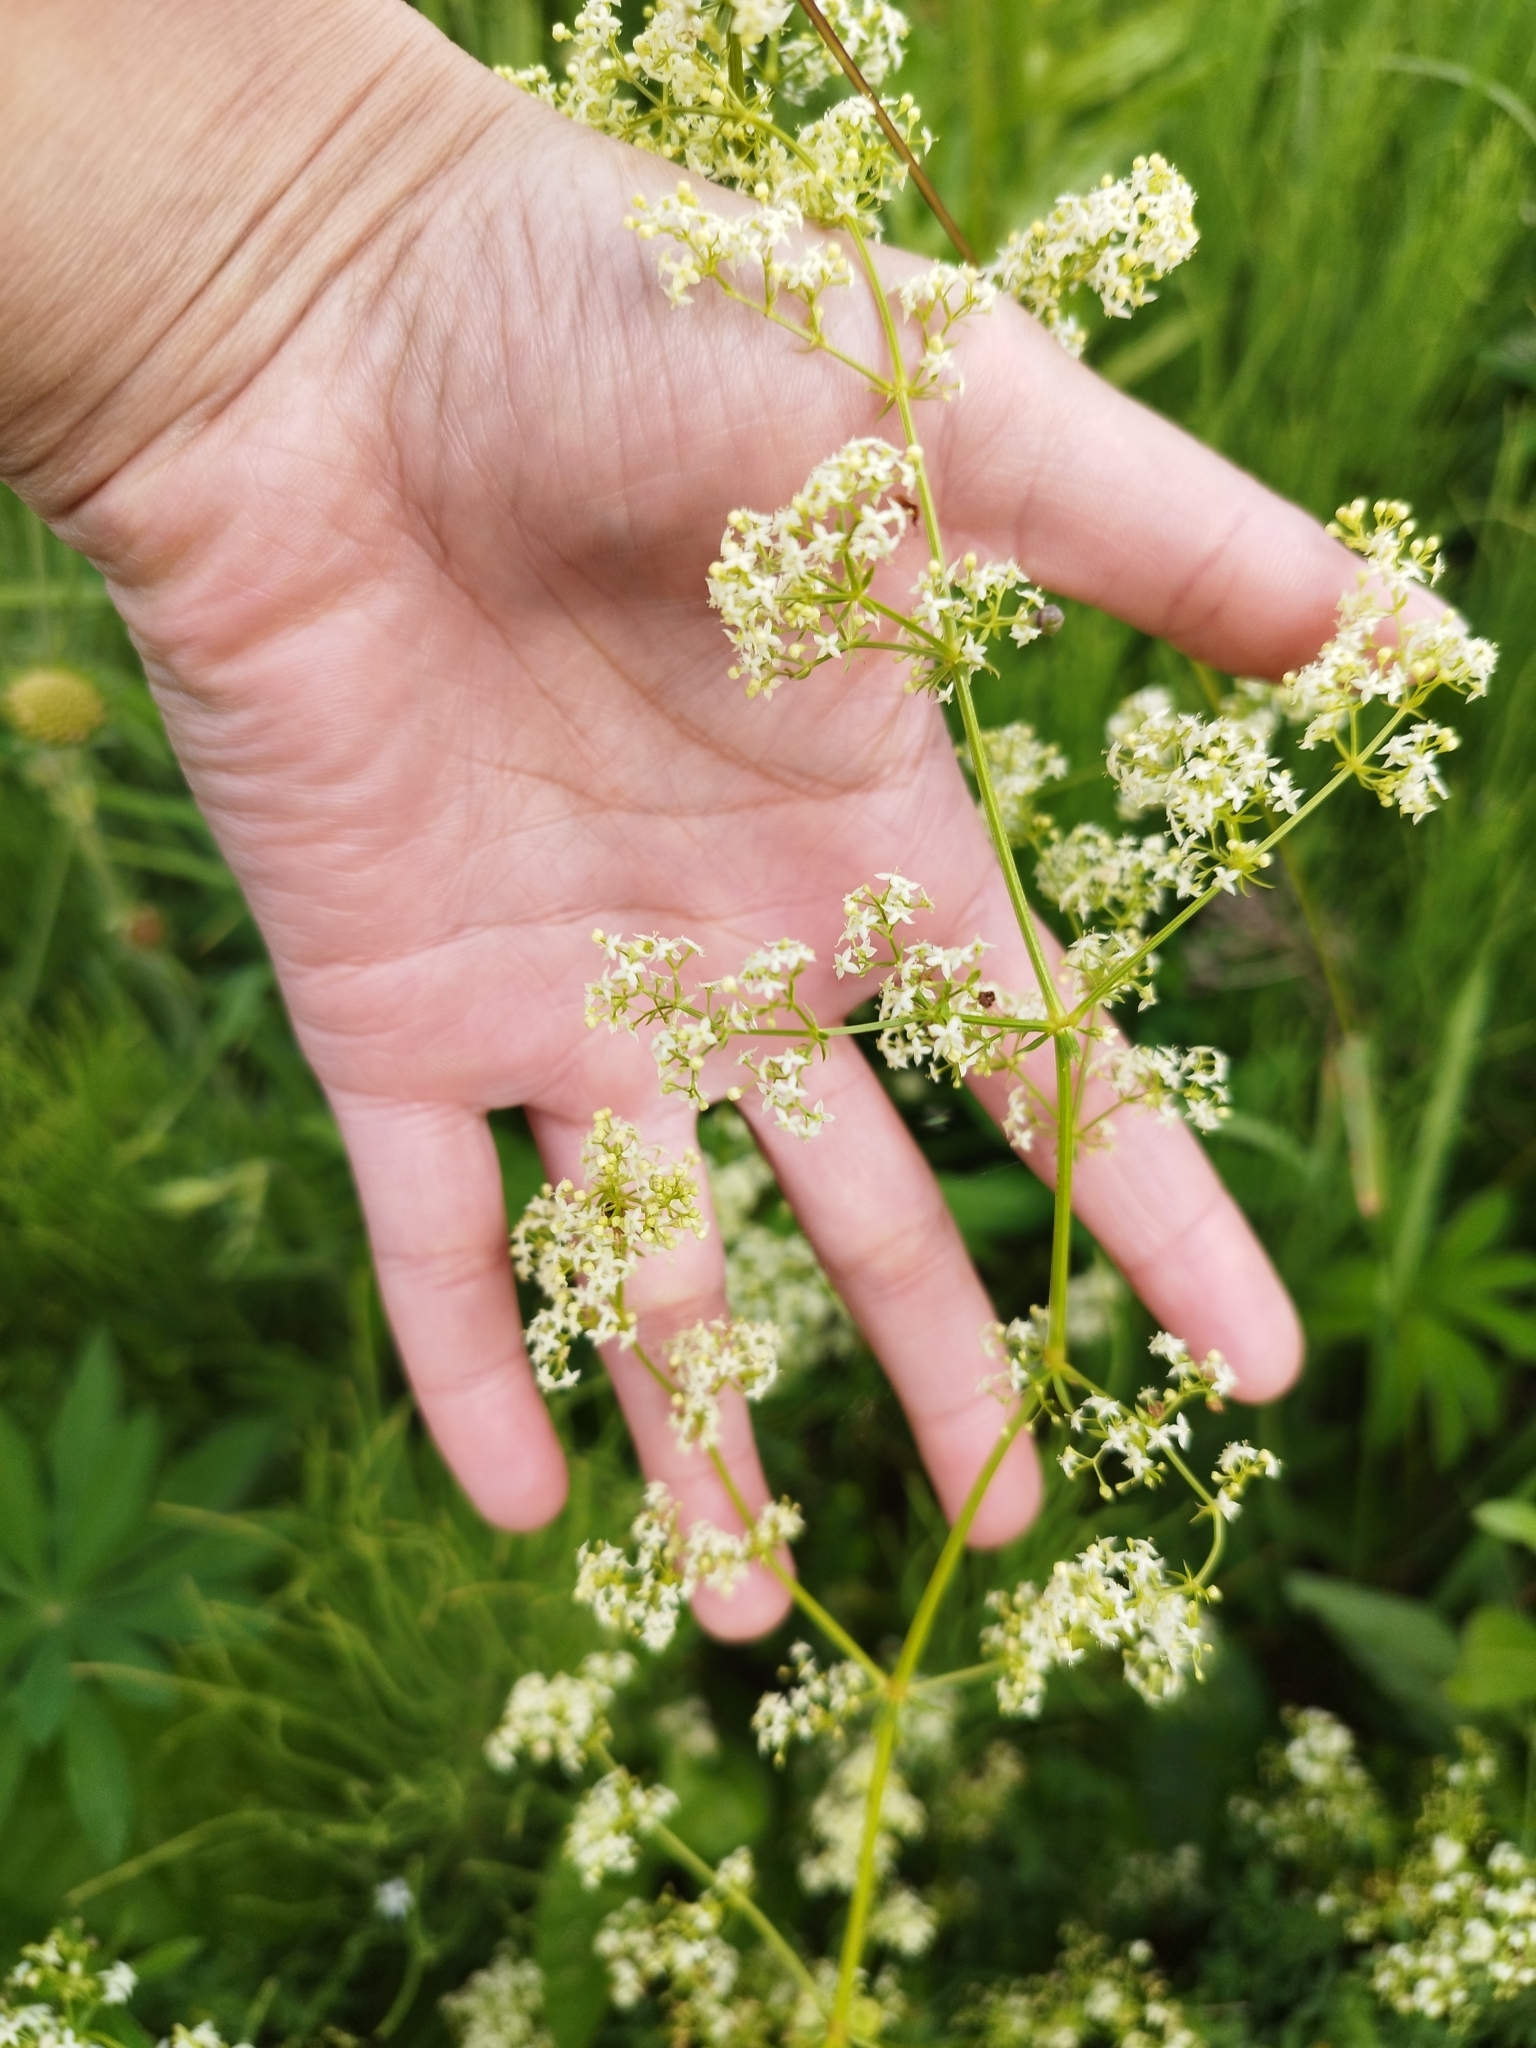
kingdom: Plantae
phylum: Tracheophyta
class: Magnoliopsida
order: Gentianales
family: Rubiaceae
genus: Galium
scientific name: Galium mollugo
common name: Hedge bedstraw
